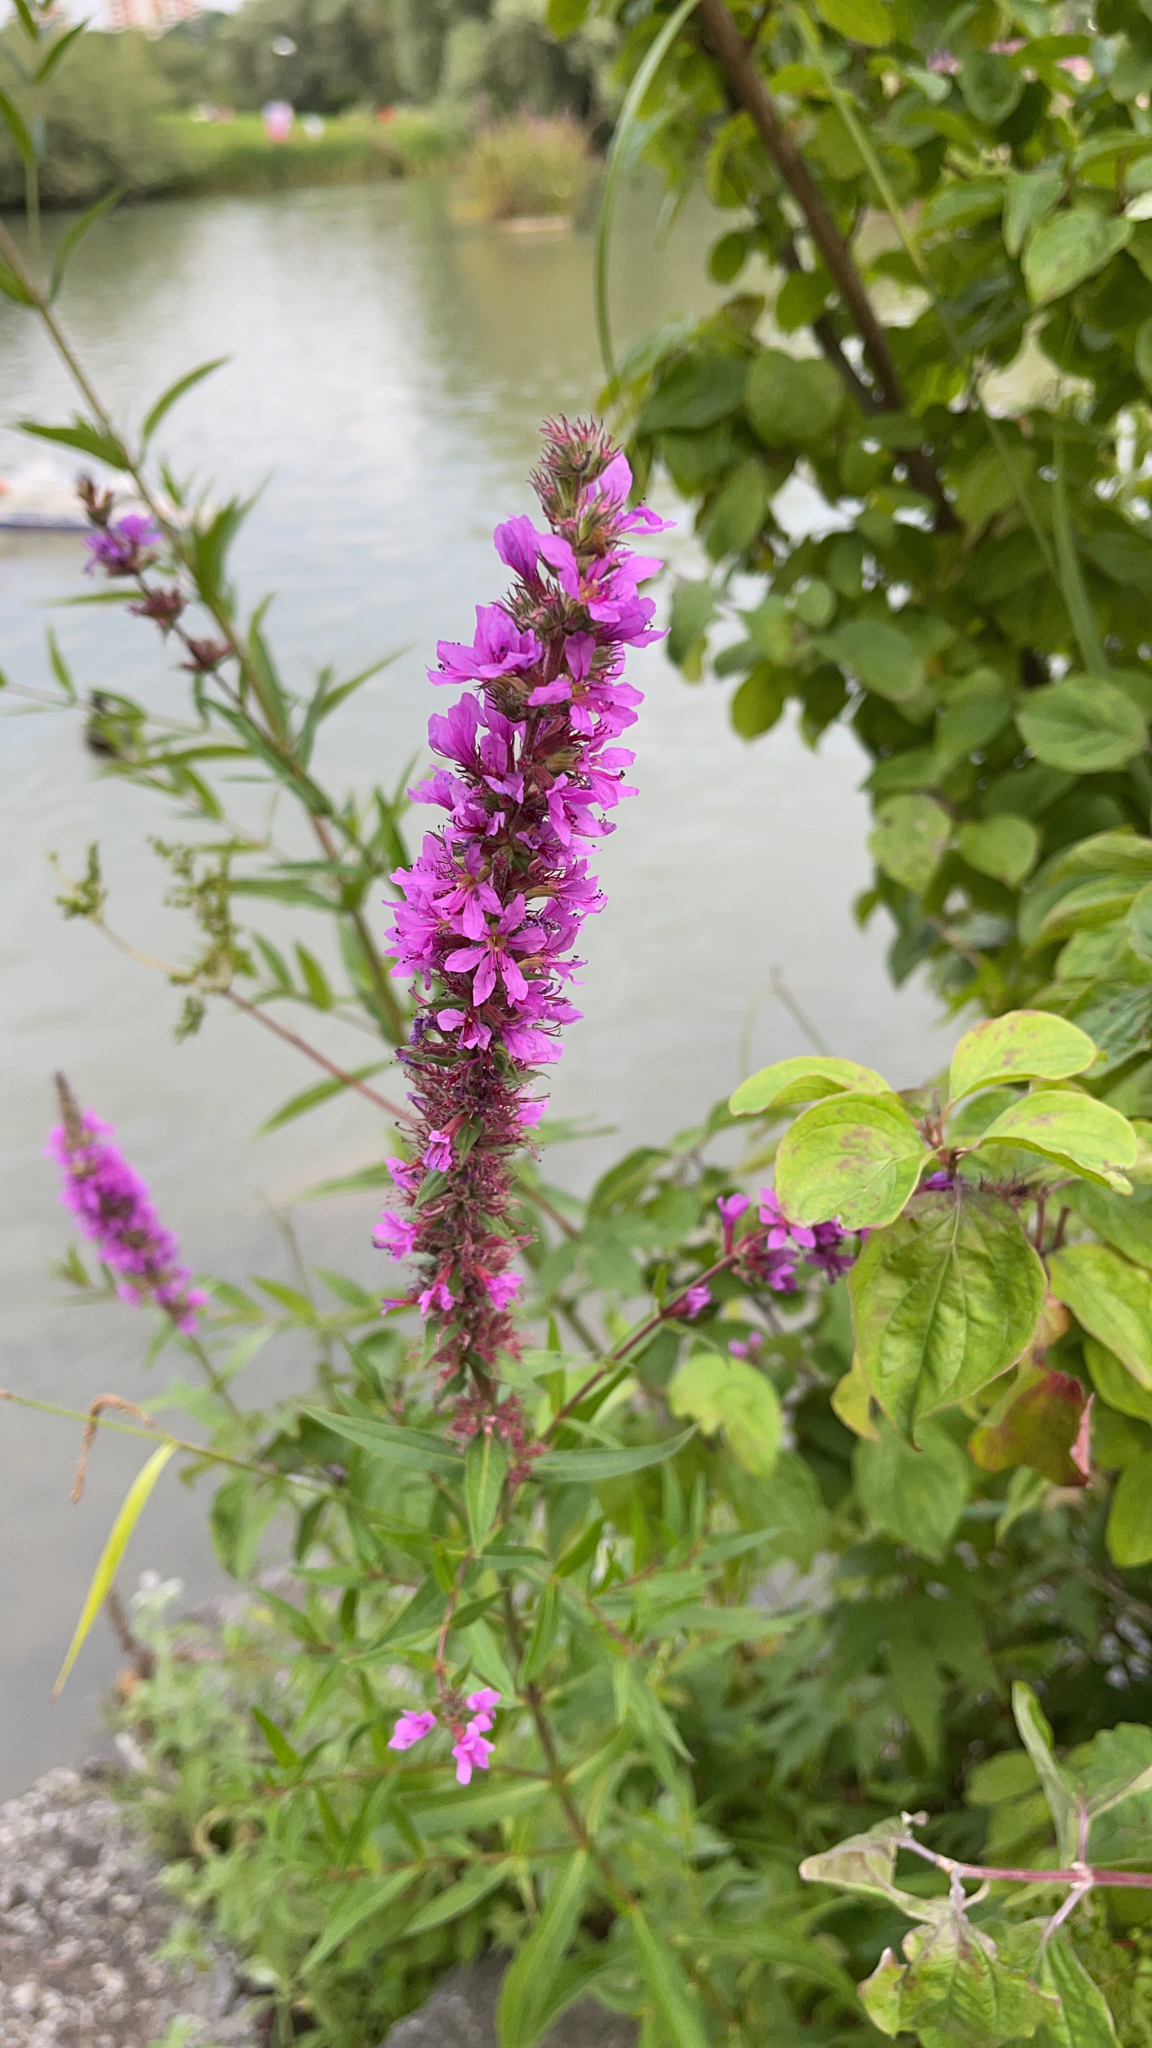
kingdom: Plantae
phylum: Tracheophyta
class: Magnoliopsida
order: Myrtales
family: Lythraceae
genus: Lythrum
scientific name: Lythrum salicaria
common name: Purple loosestrife
